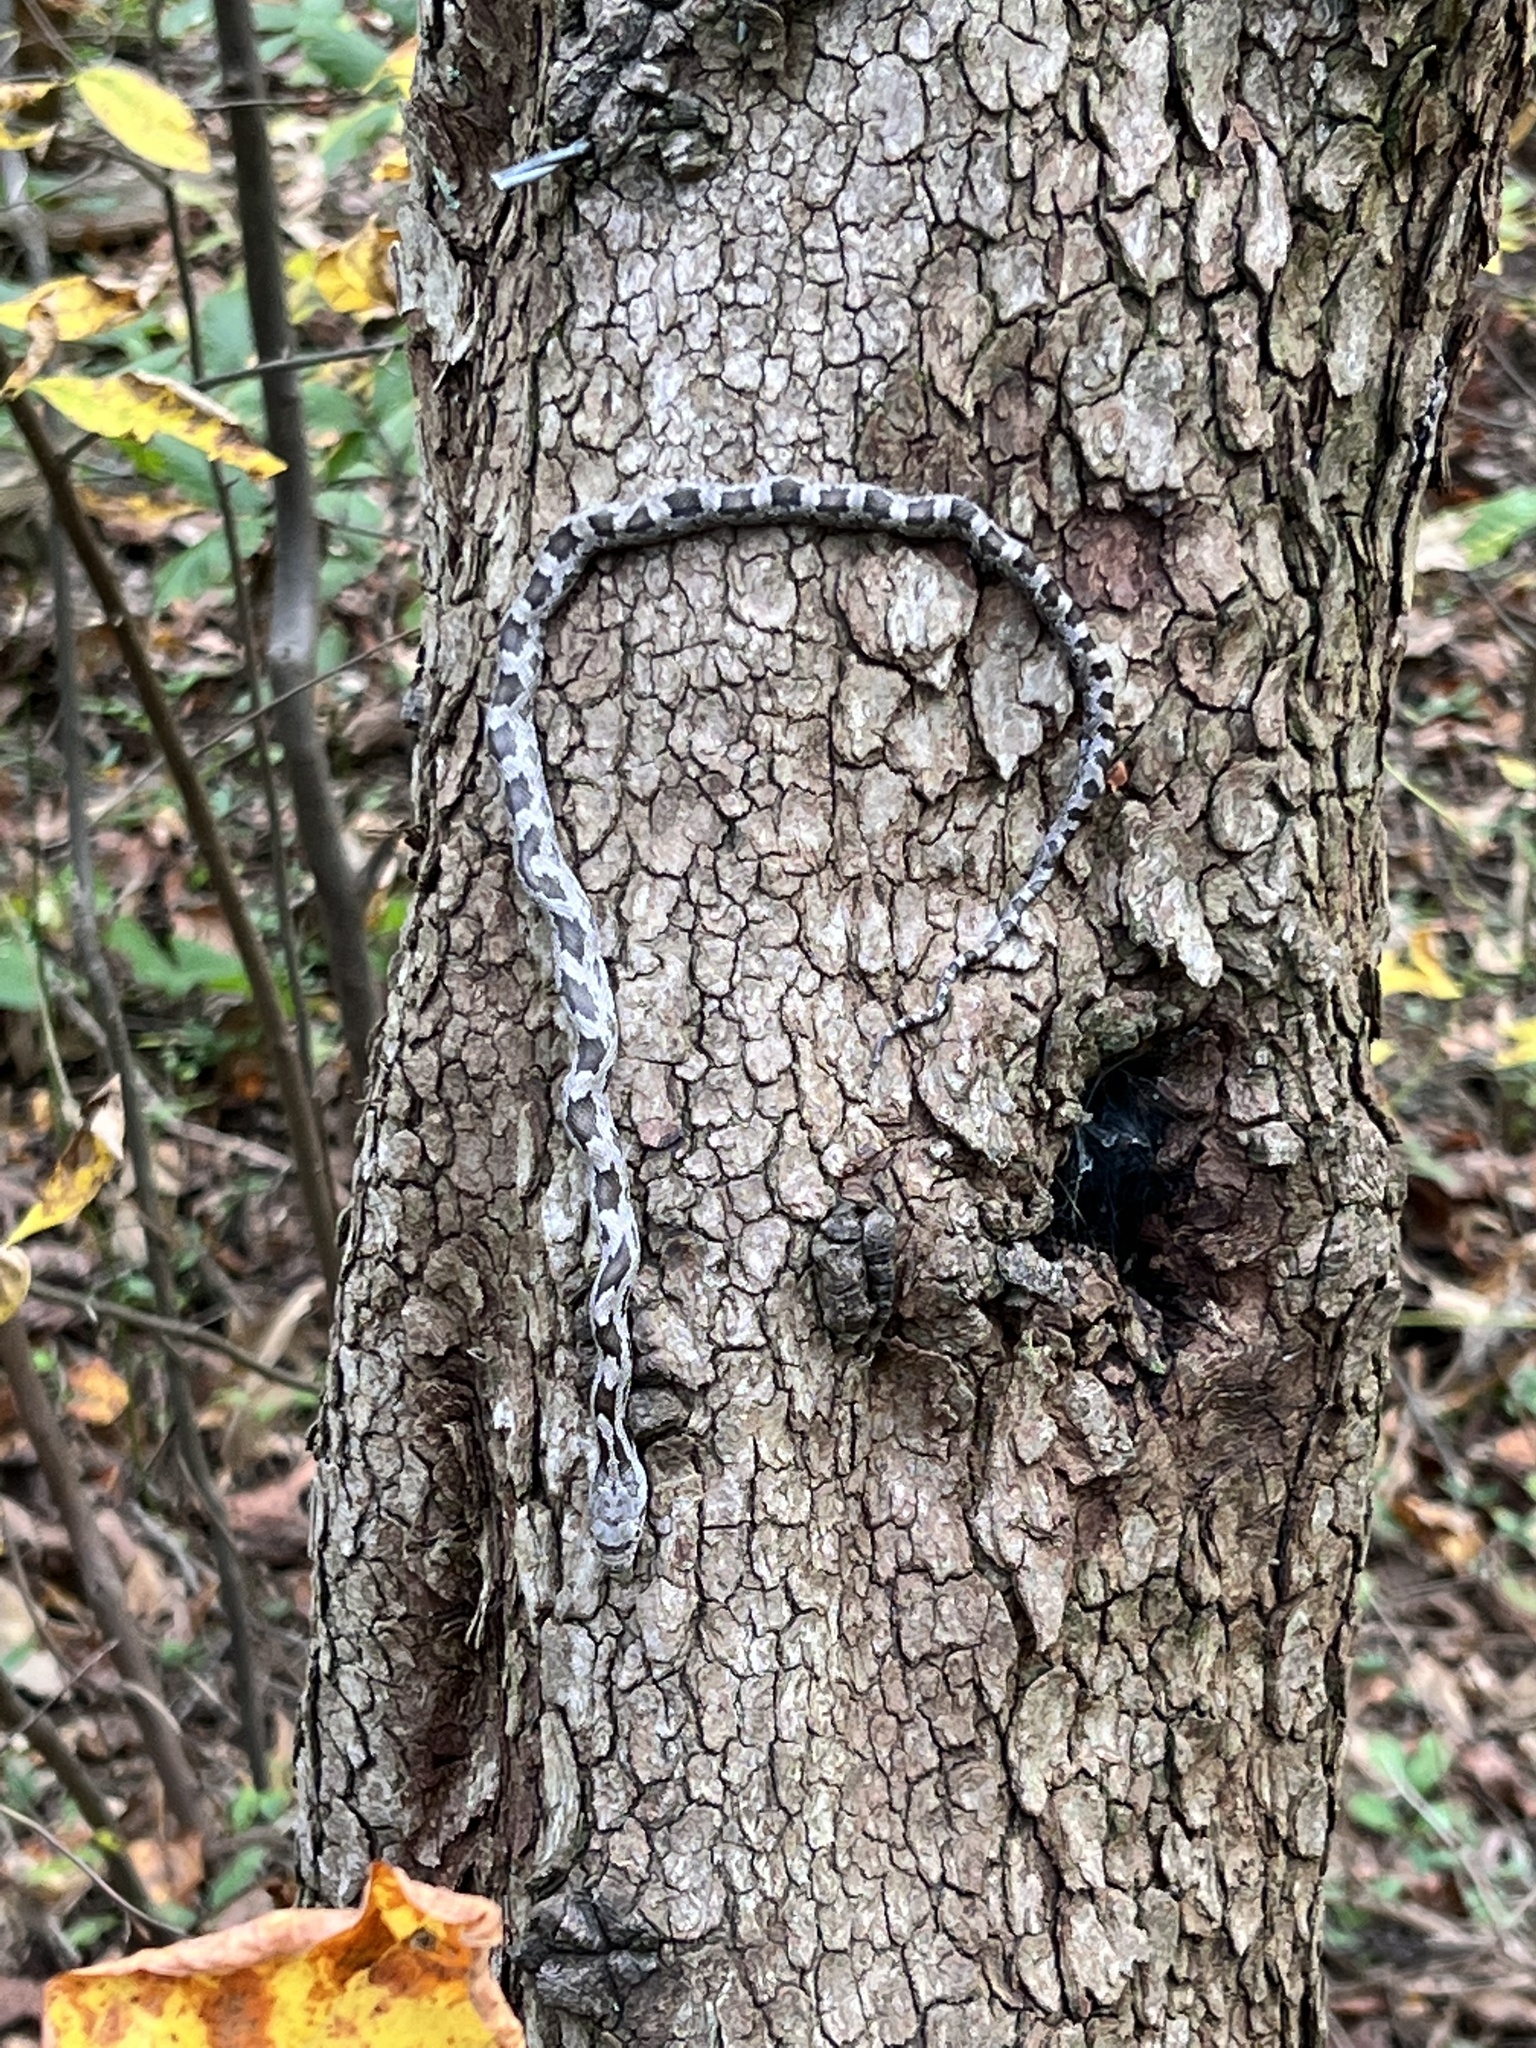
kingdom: Animalia
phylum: Chordata
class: Squamata
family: Colubridae
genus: Pantherophis
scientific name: Pantherophis alleghaniensis
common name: Eastern rat snake
